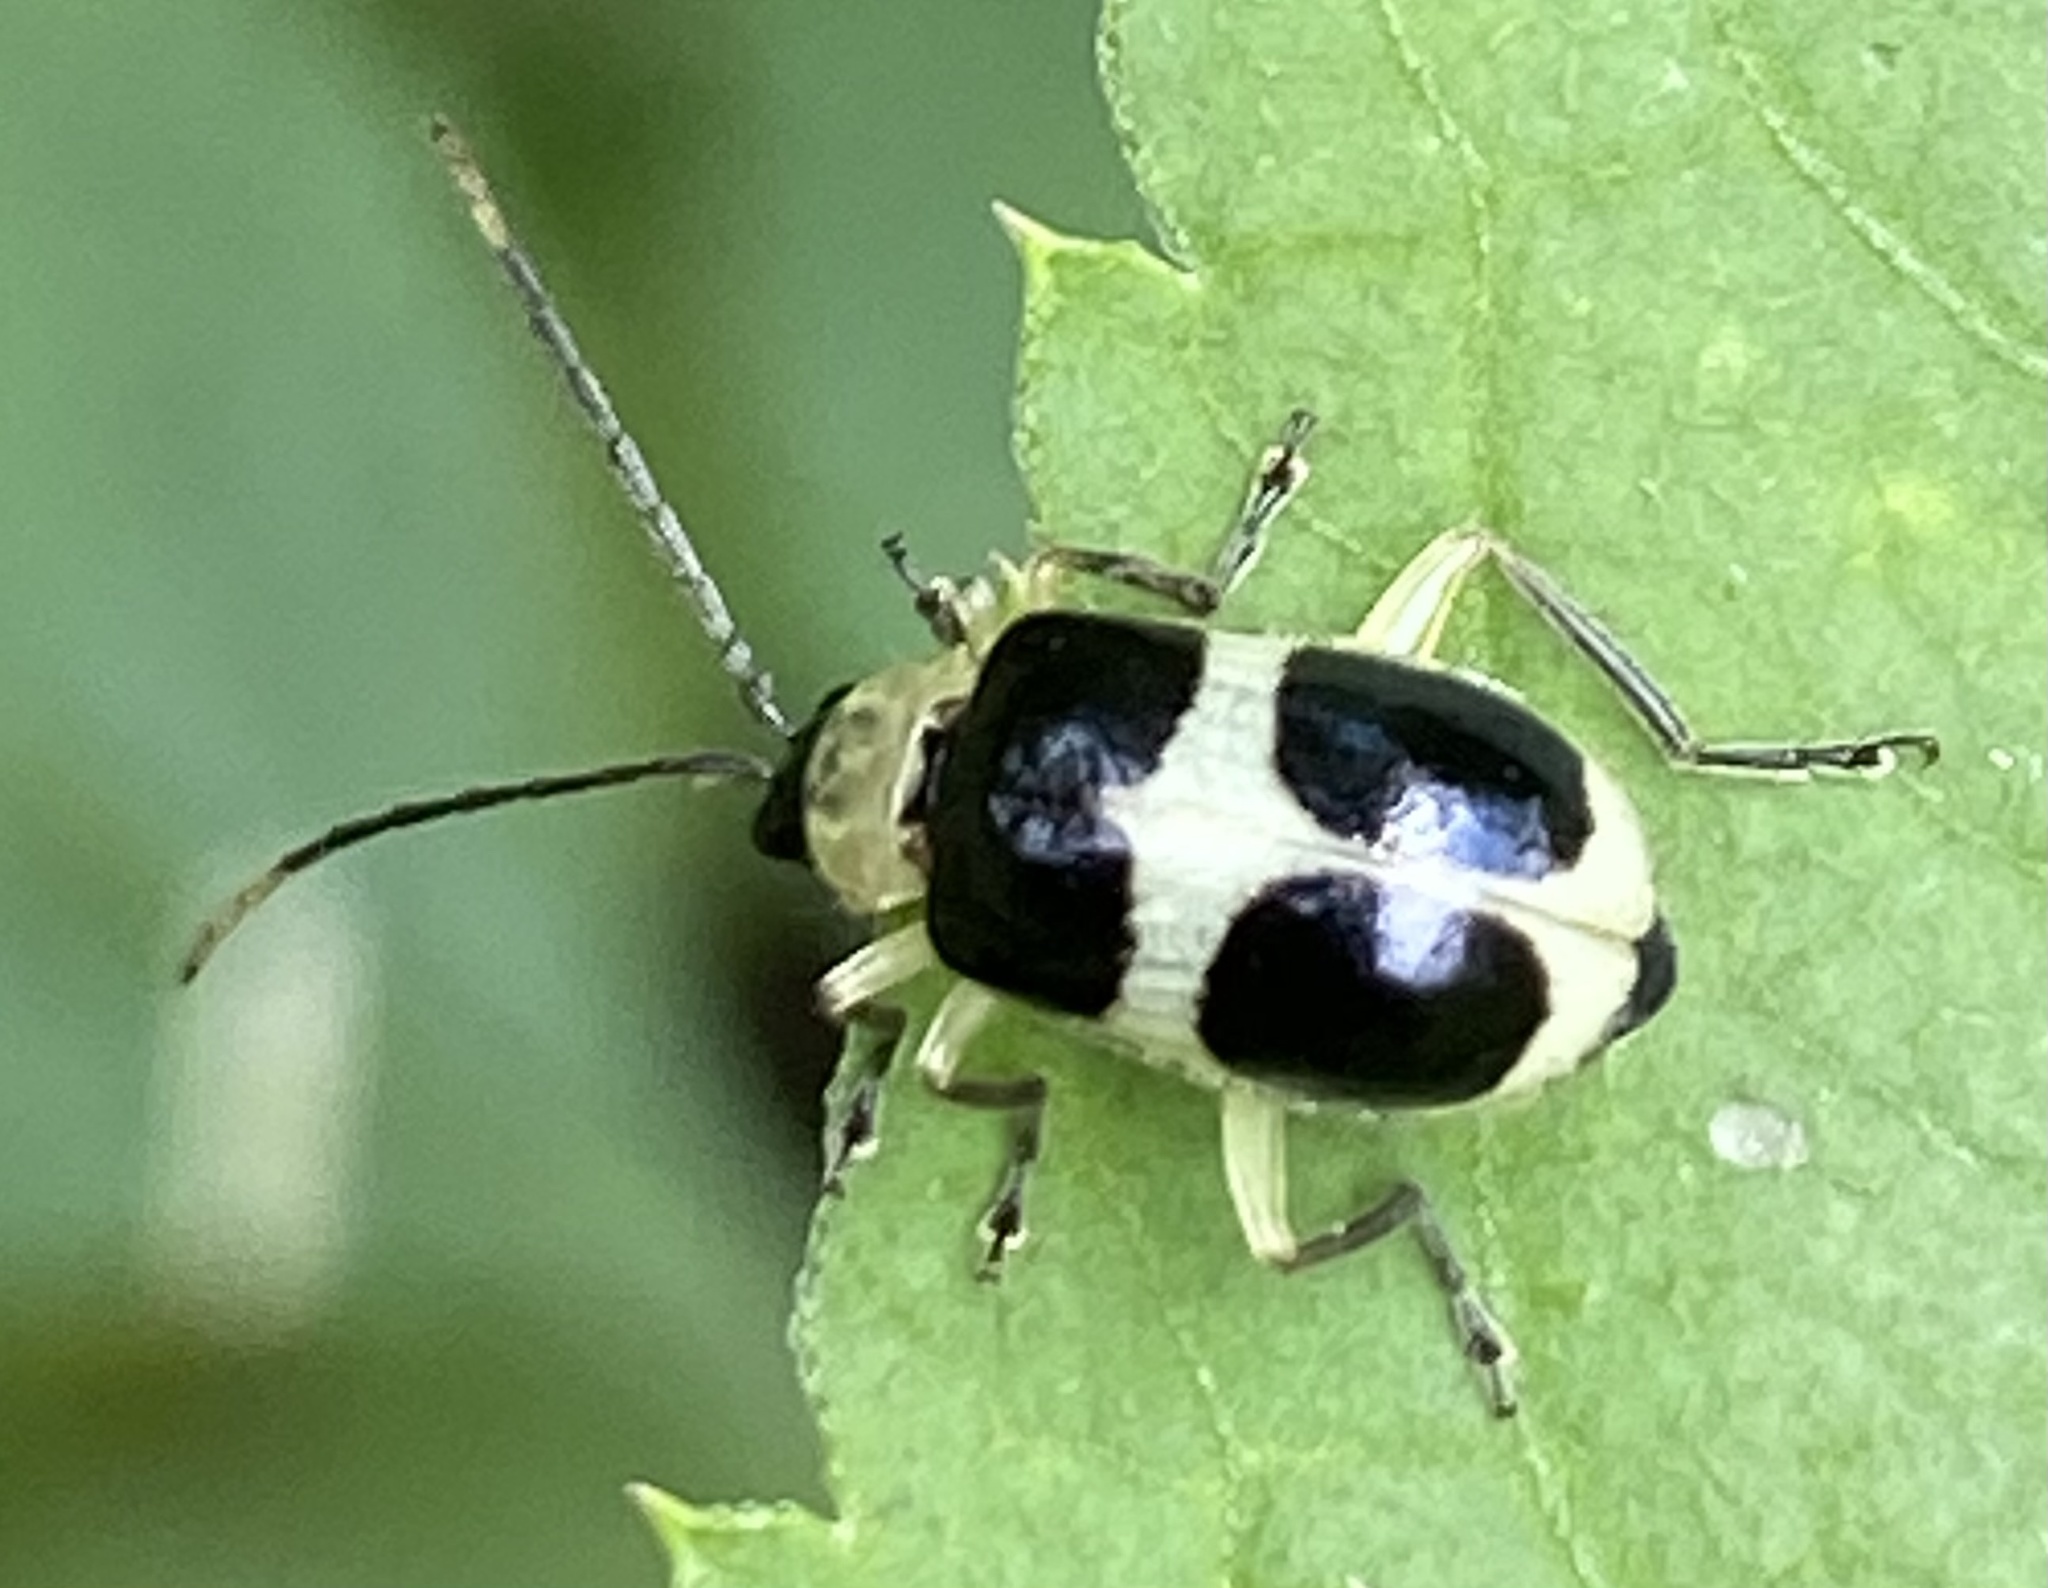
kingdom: Animalia
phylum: Arthropoda
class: Insecta
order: Coleoptera
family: Chrysomelidae
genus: Isotes
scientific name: Isotes
